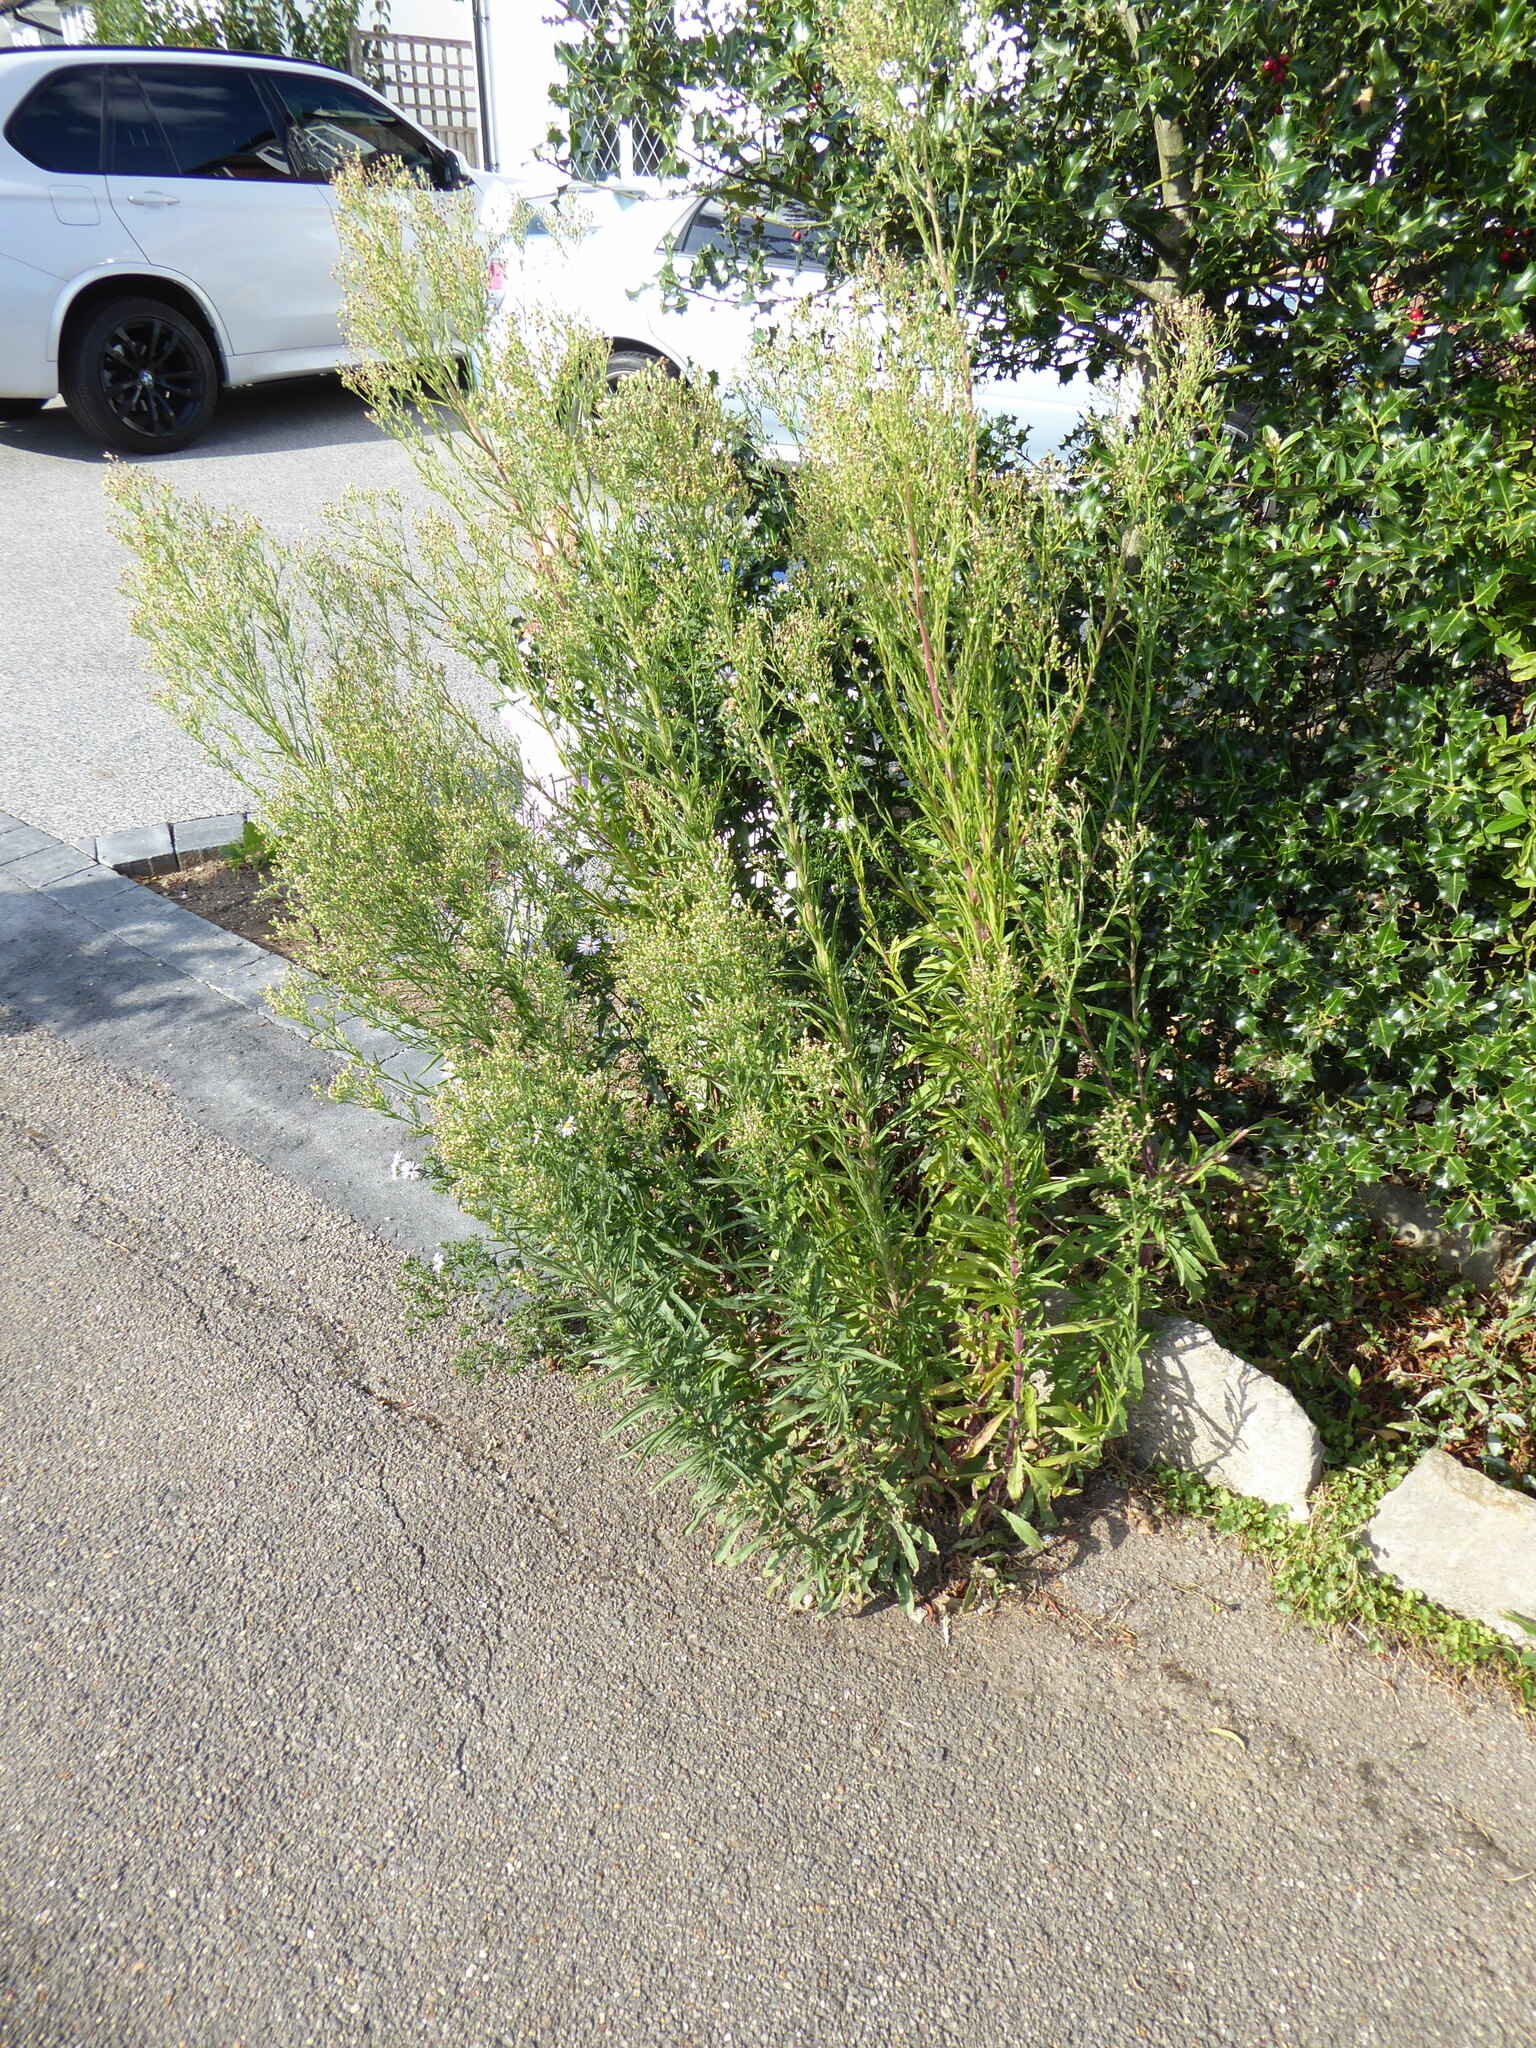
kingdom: Plantae
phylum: Tracheophyta
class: Magnoliopsida
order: Asterales
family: Asteraceae
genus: Erigeron
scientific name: Erigeron sumatrensis
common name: Daisy
